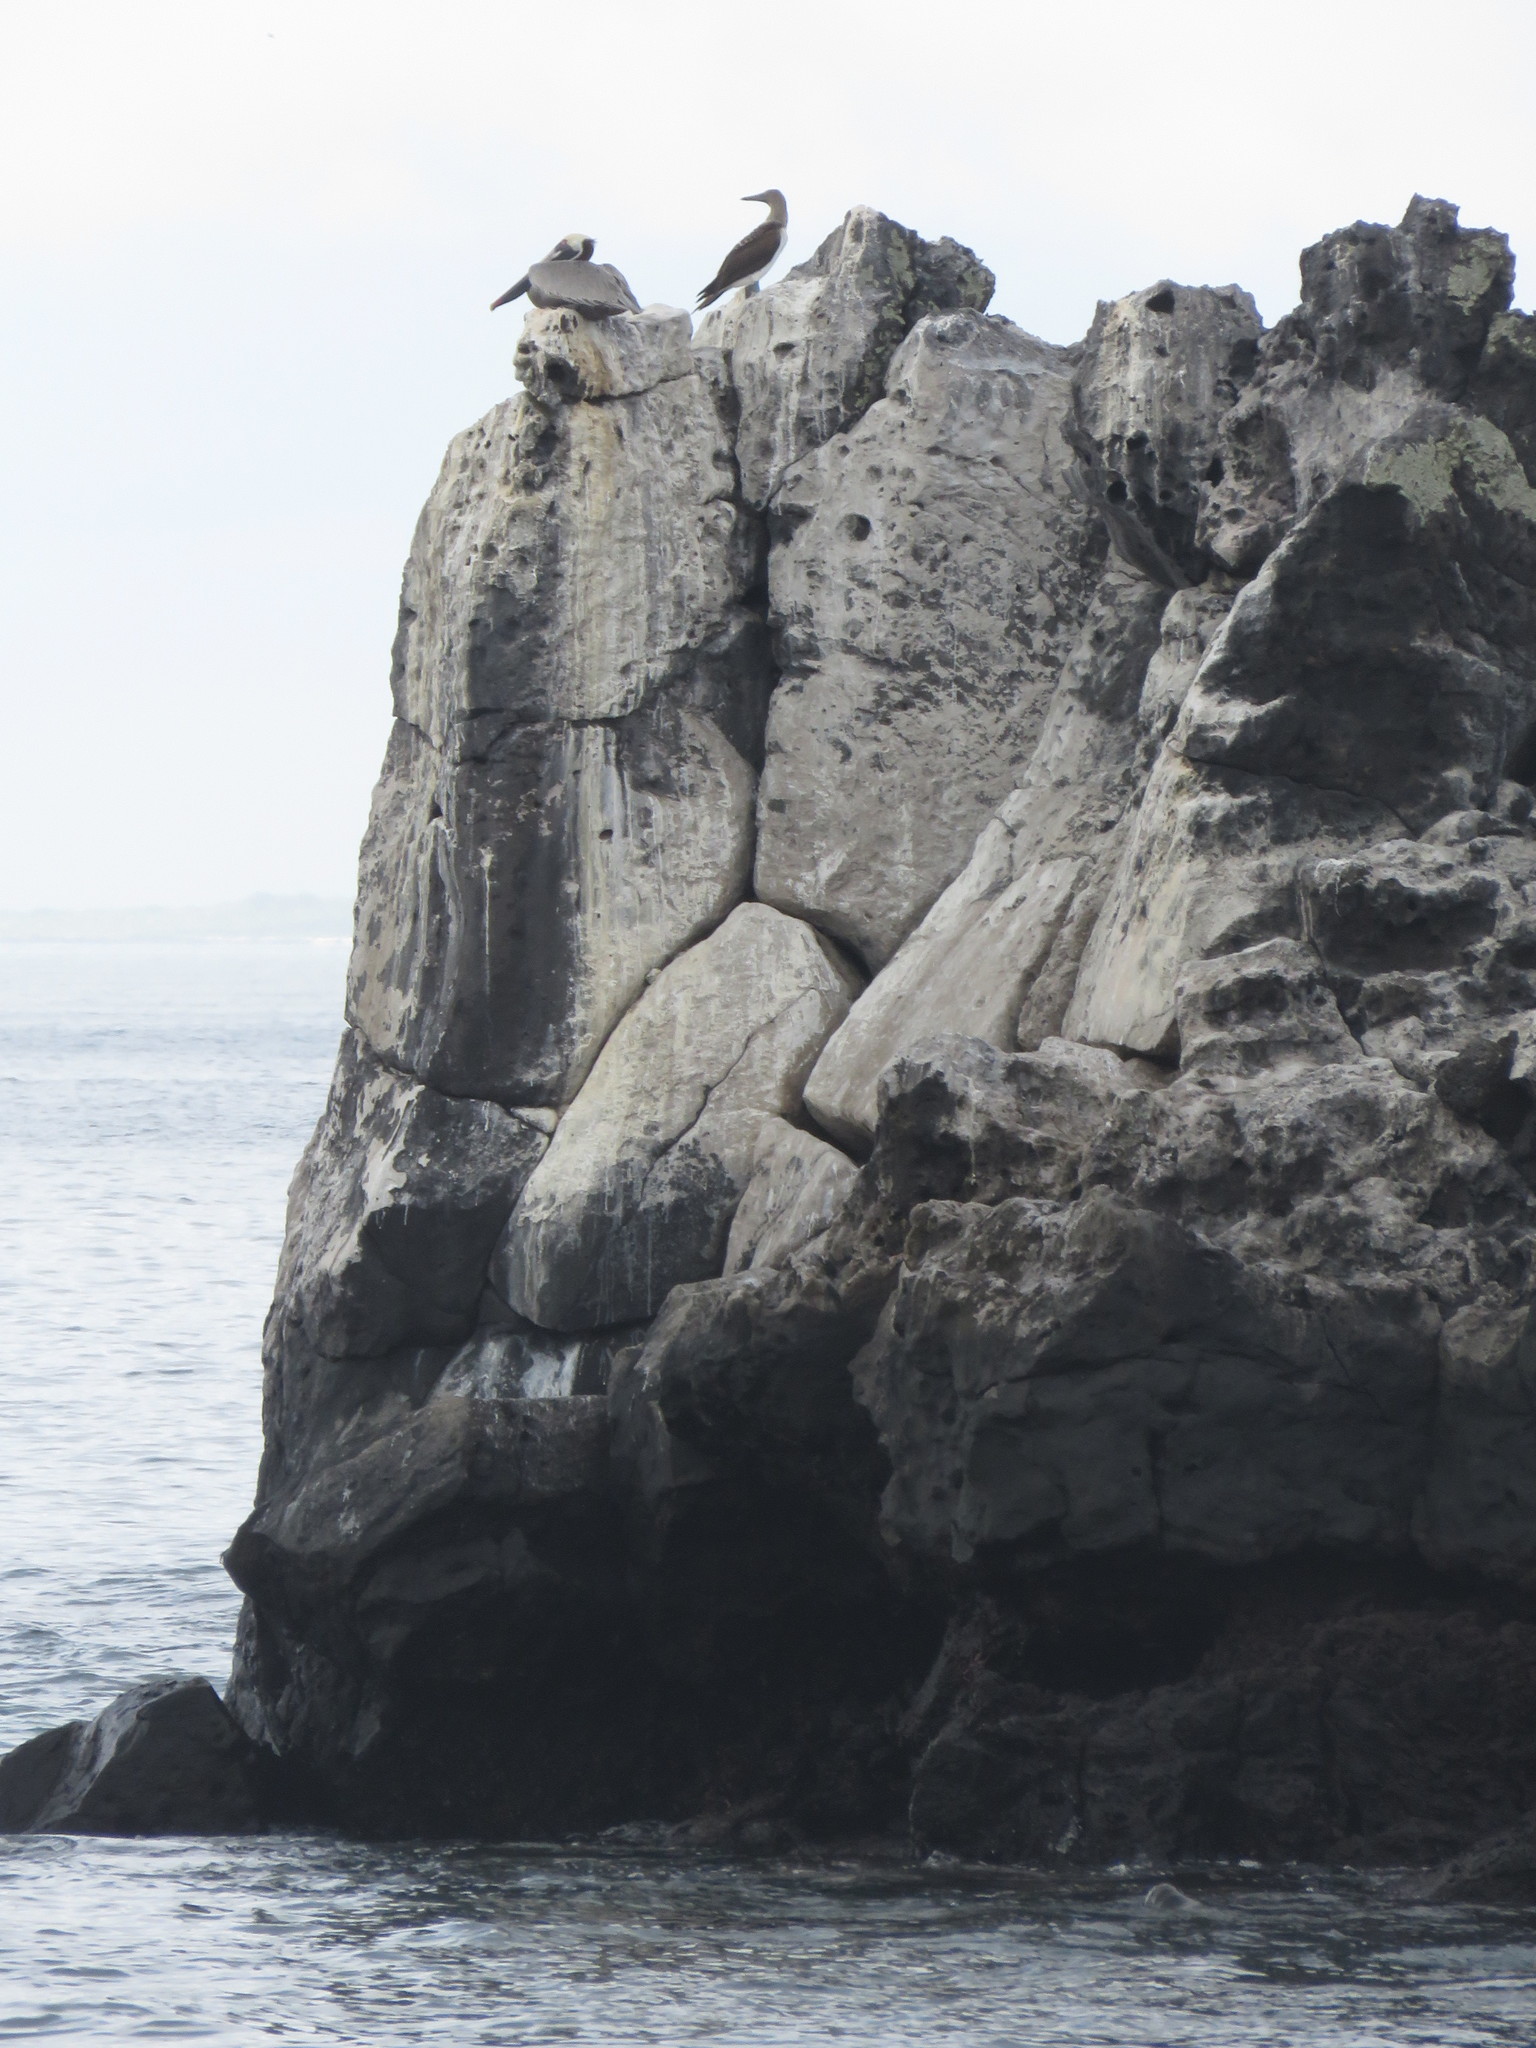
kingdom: Animalia
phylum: Chordata
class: Aves
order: Suliformes
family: Sulidae
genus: Sula
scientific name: Sula nebouxii
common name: Blue-footed booby
